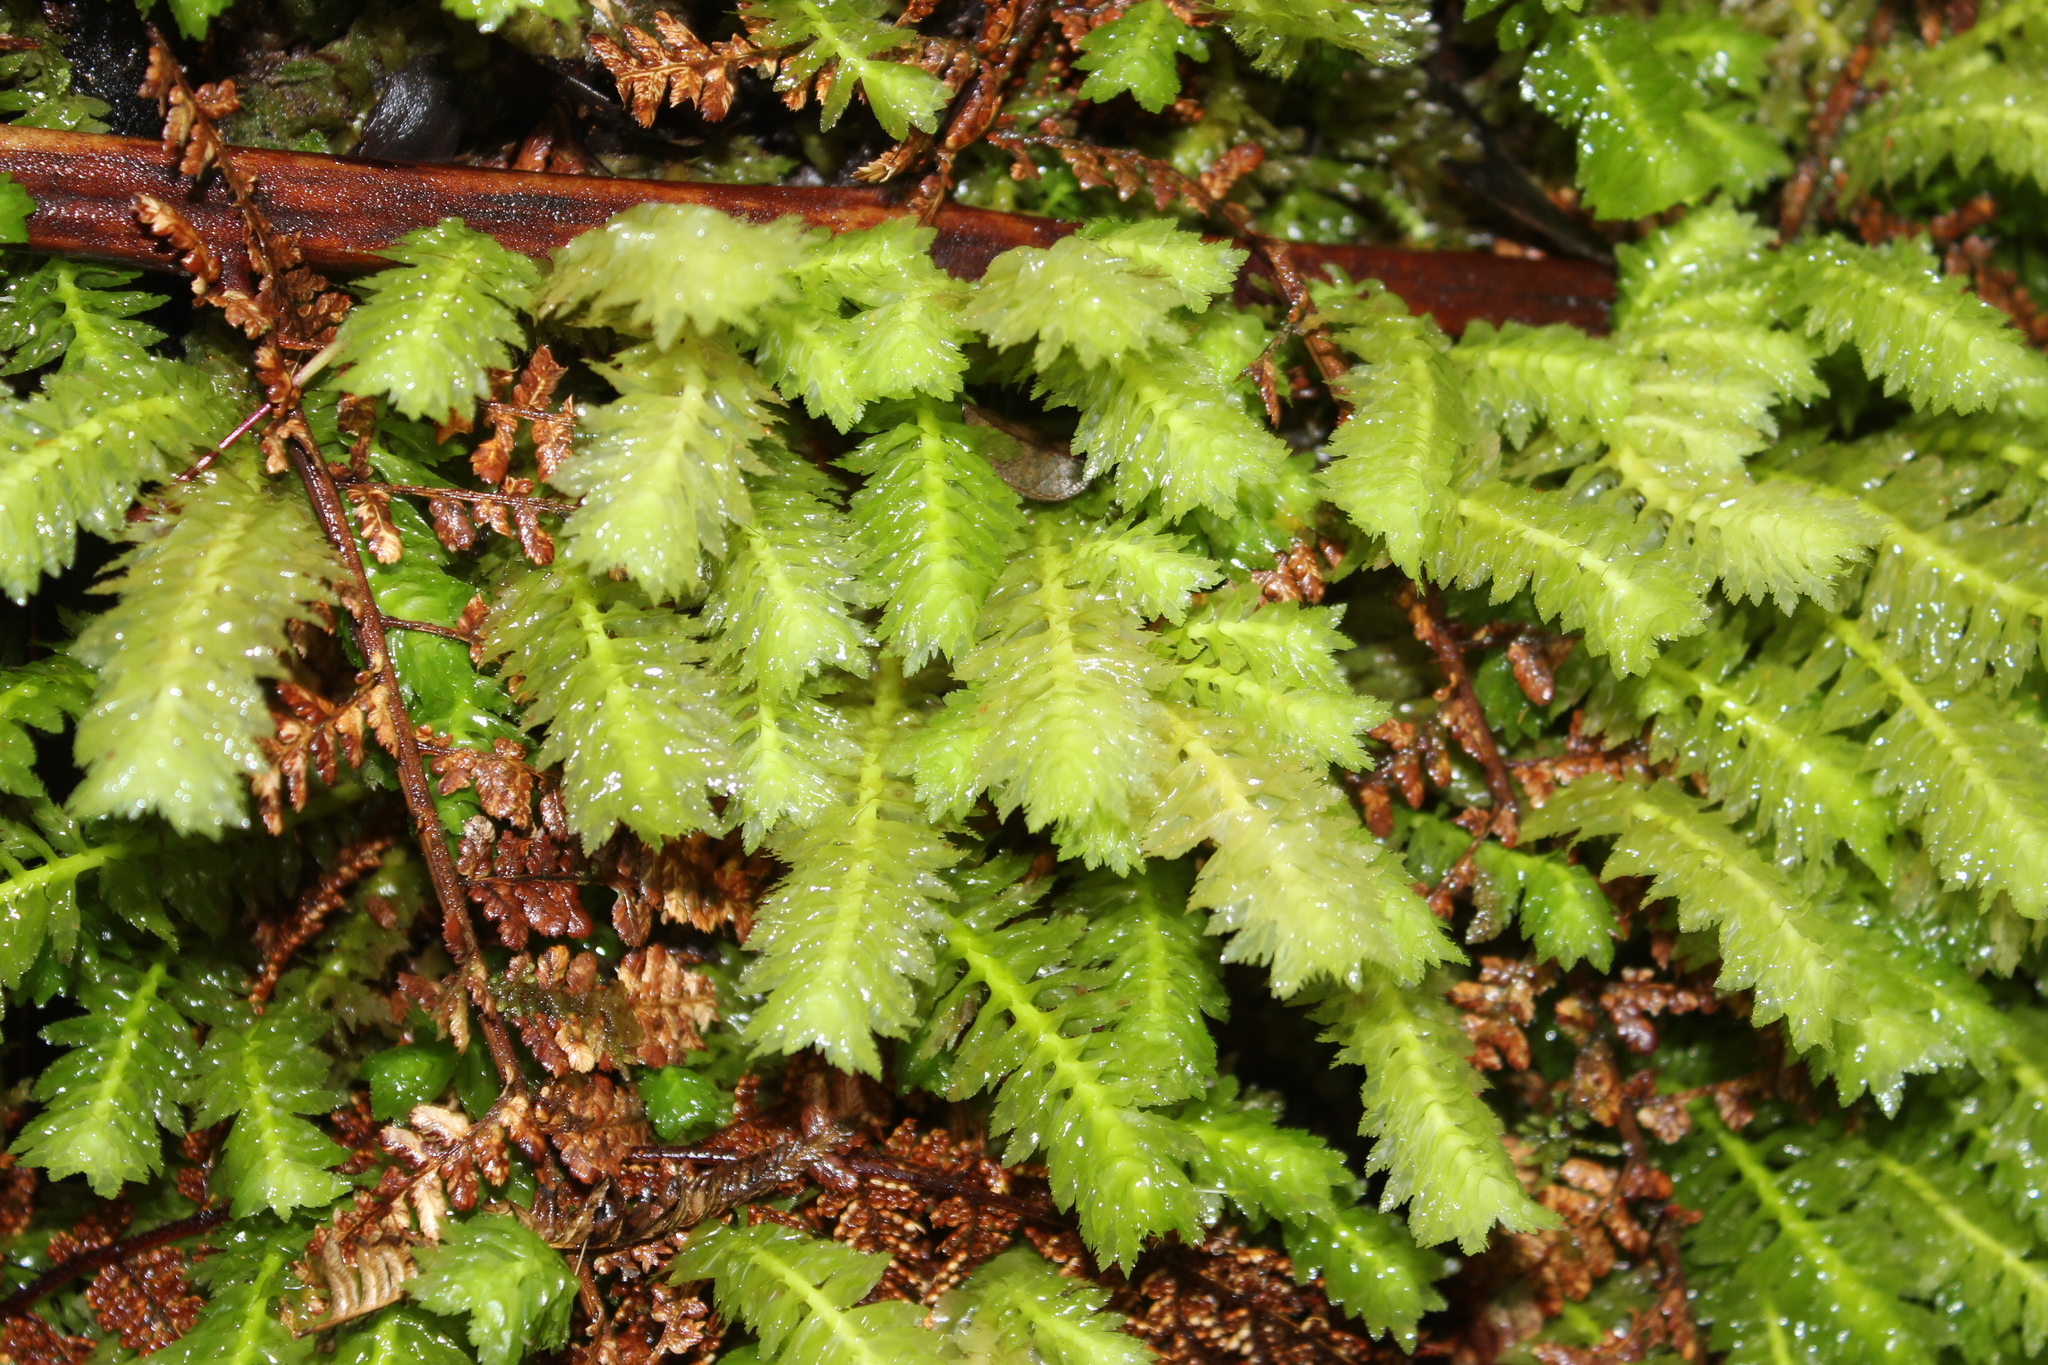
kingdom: Plantae
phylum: Marchantiophyta
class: Jungermanniopsida
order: Jungermanniales
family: Schistochilaceae
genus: Schistochila
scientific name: Schistochila appendiculata
